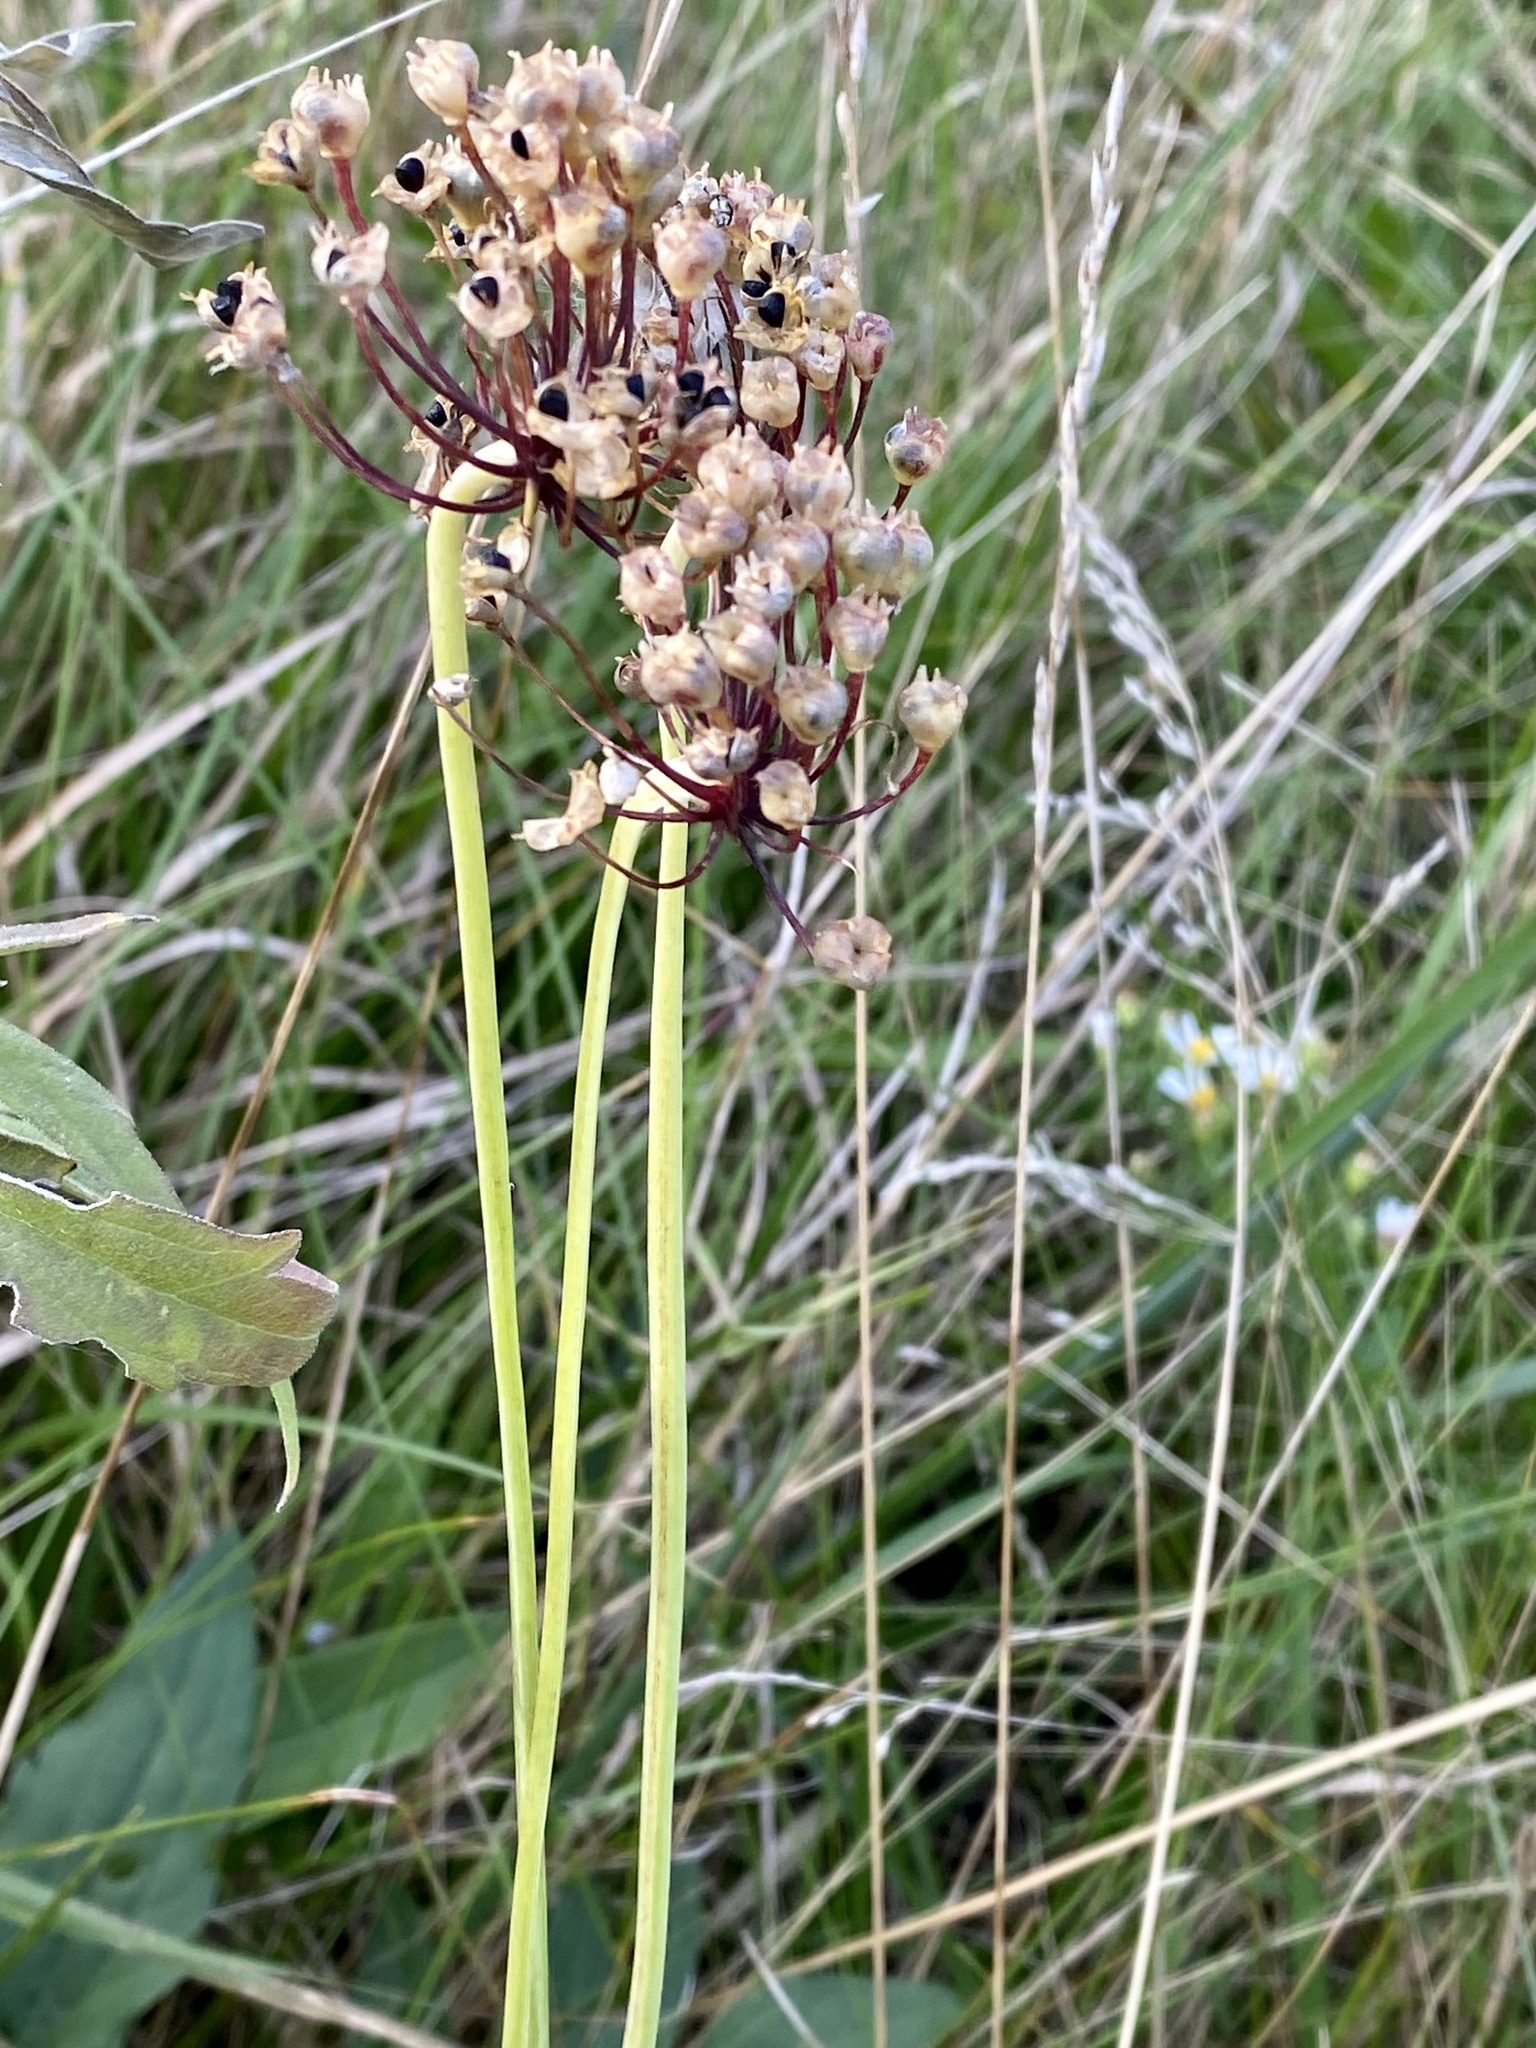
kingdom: Plantae
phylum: Tracheophyta
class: Liliopsida
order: Asparagales
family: Amaryllidaceae
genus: Allium
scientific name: Allium cernuum
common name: Nodding onion
